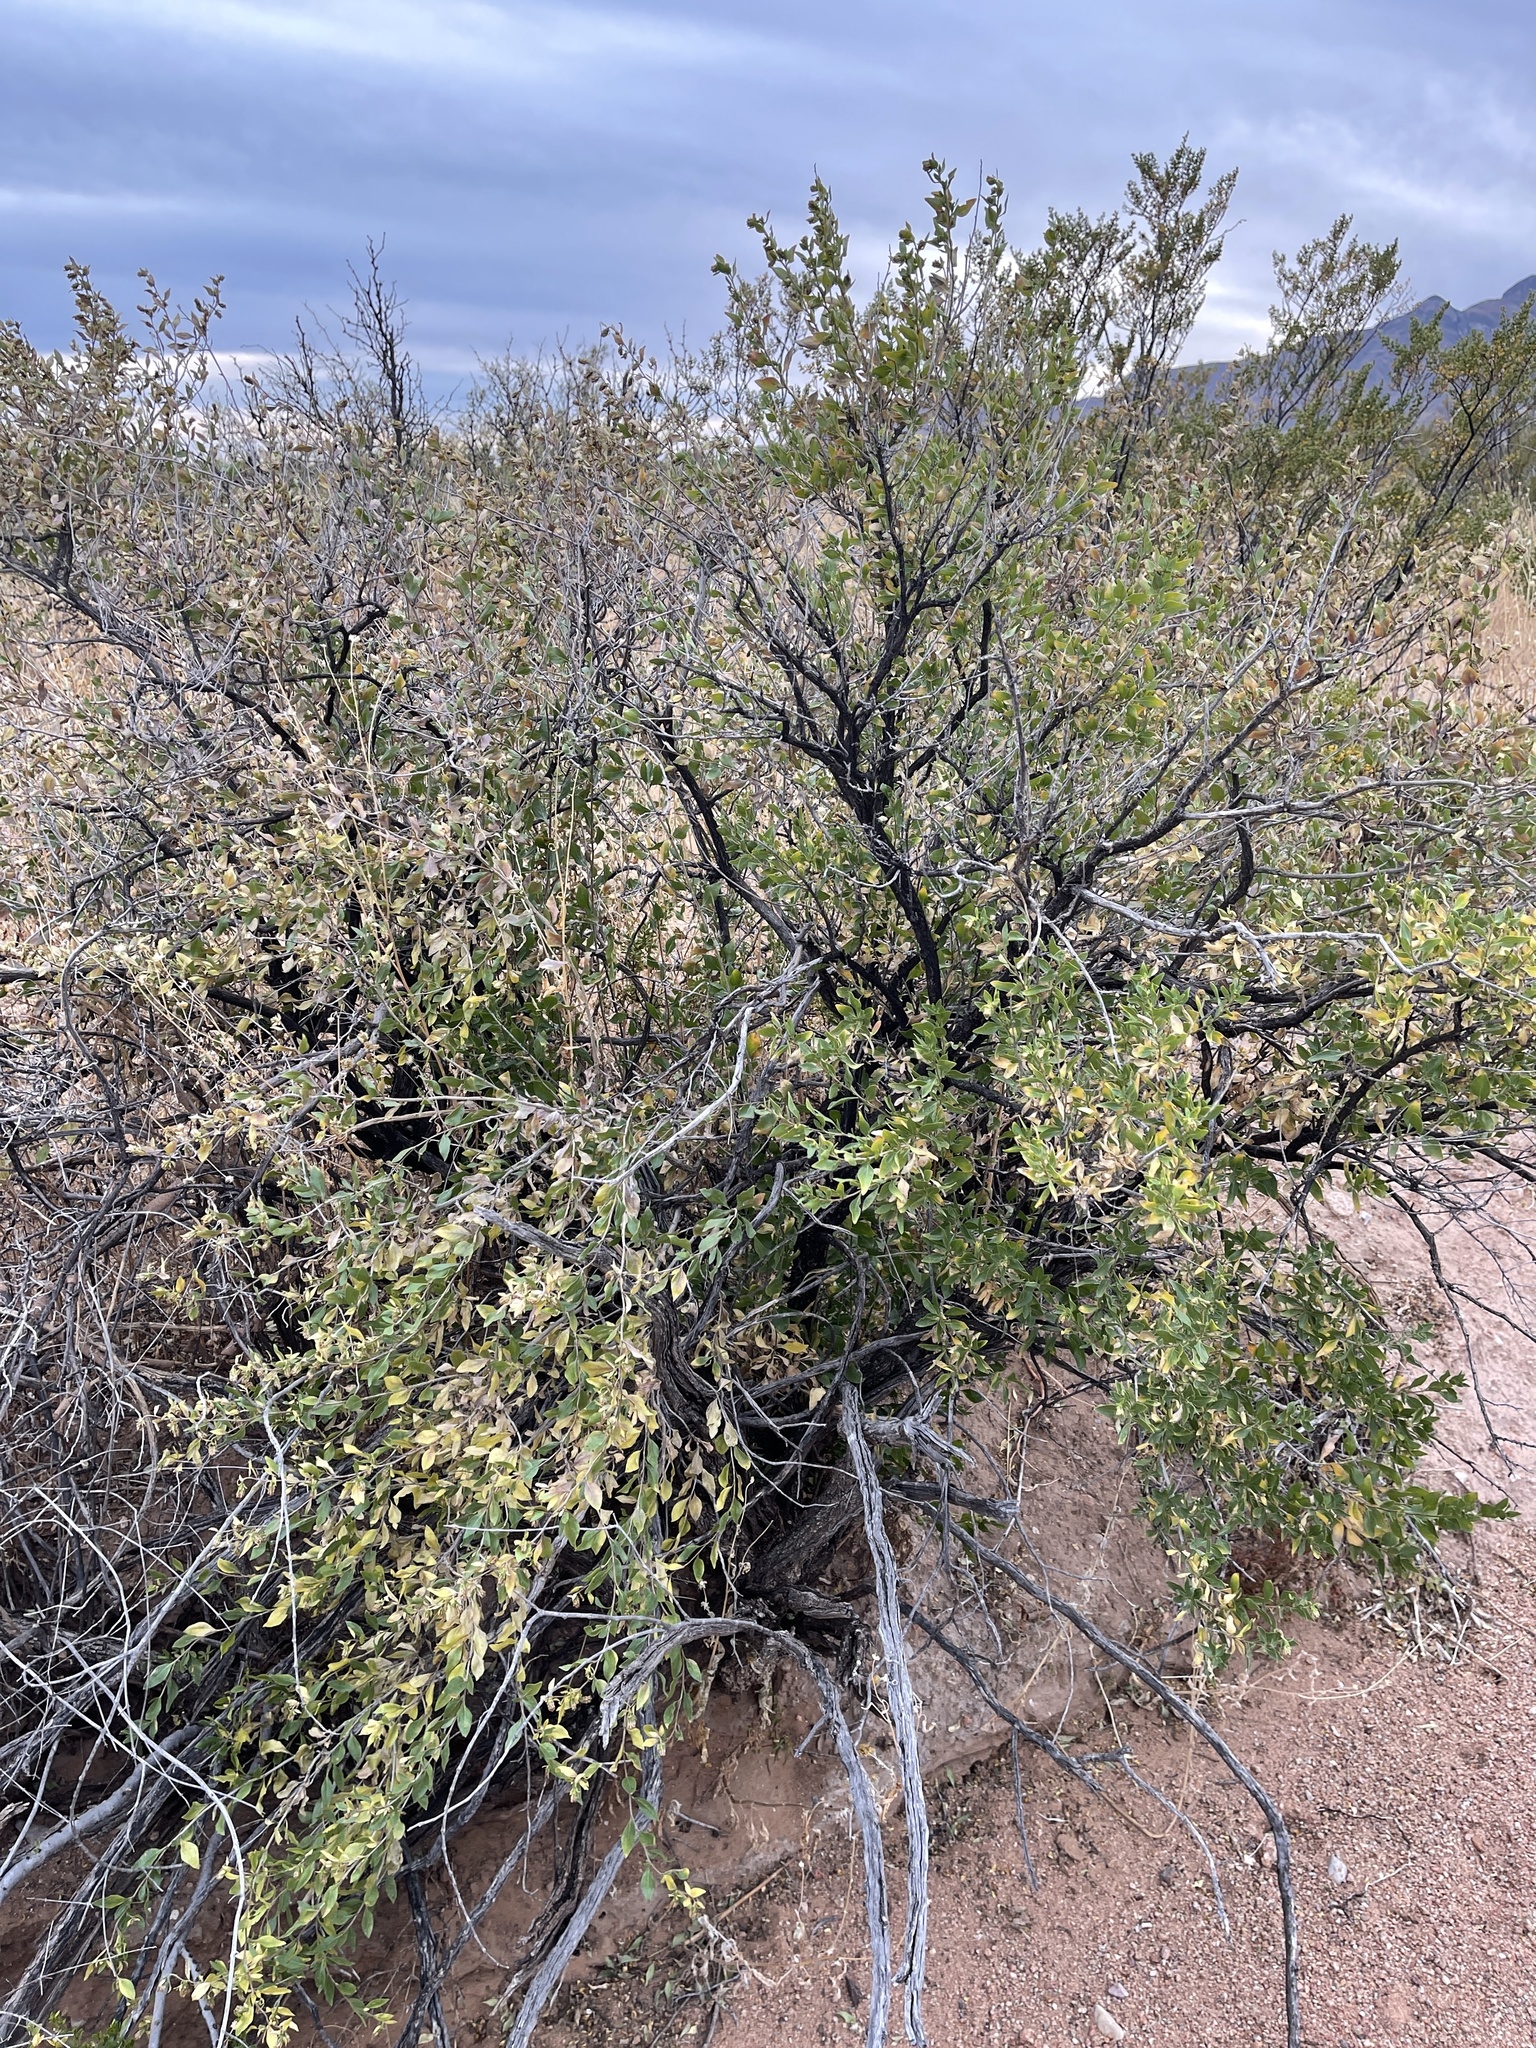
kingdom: Plantae
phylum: Tracheophyta
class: Magnoliopsida
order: Asterales
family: Asteraceae
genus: Flourensia
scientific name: Flourensia cernua
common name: Varnishbush
